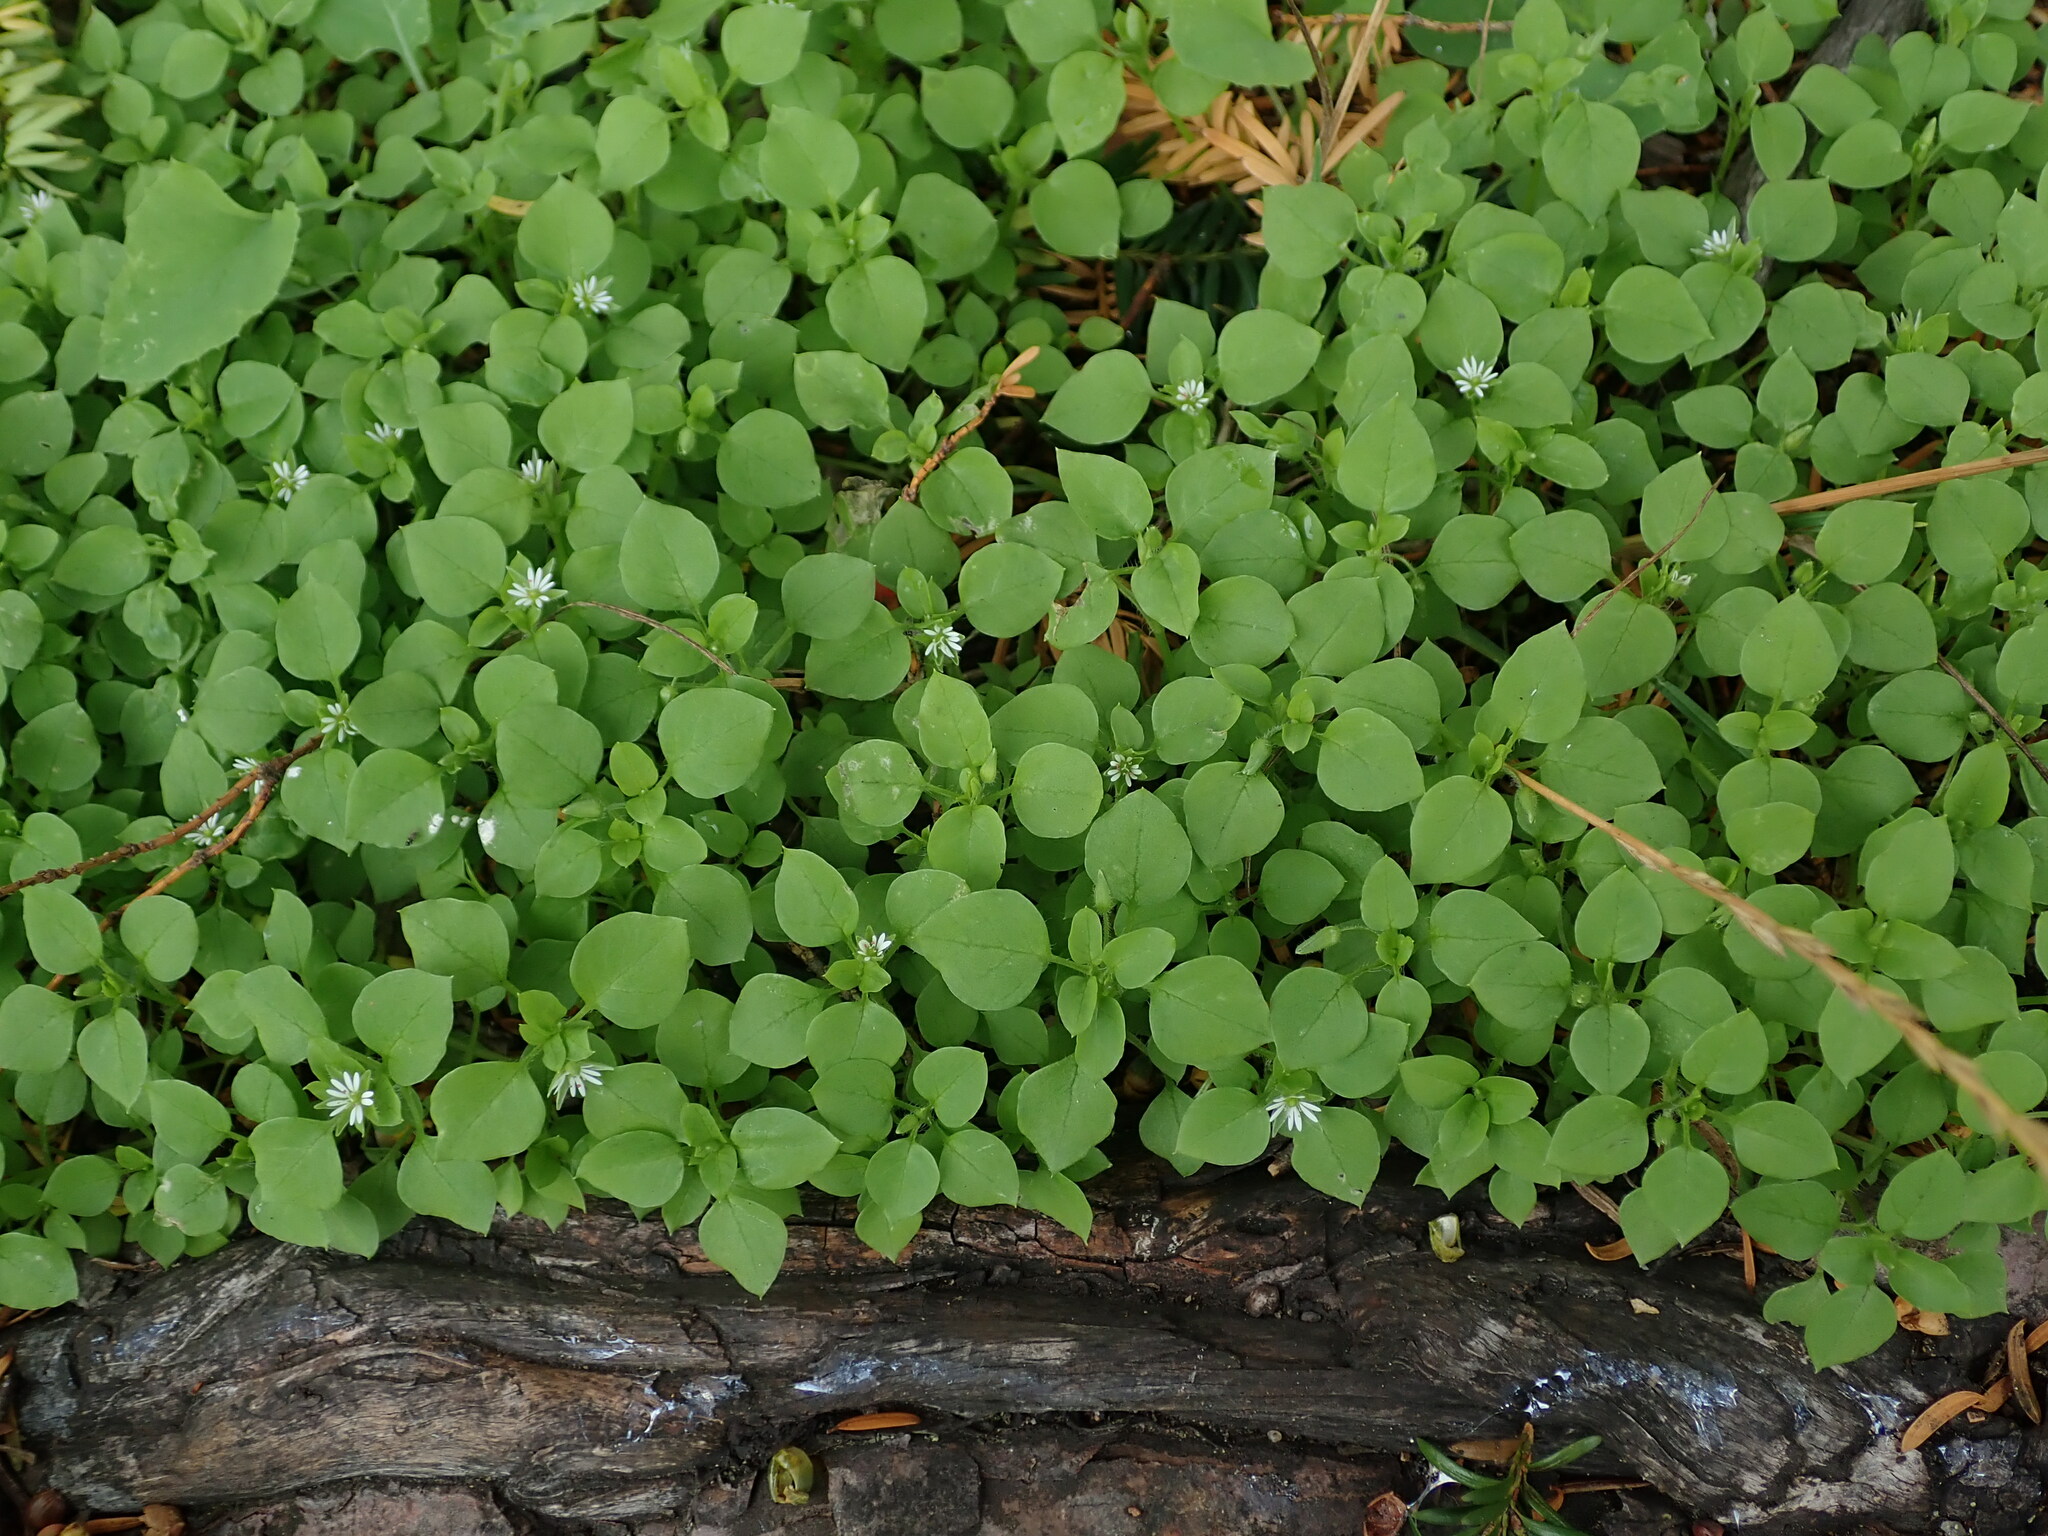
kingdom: Plantae
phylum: Tracheophyta
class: Magnoliopsida
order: Caryophyllales
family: Caryophyllaceae
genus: Stellaria
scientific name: Stellaria media
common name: Common chickweed
